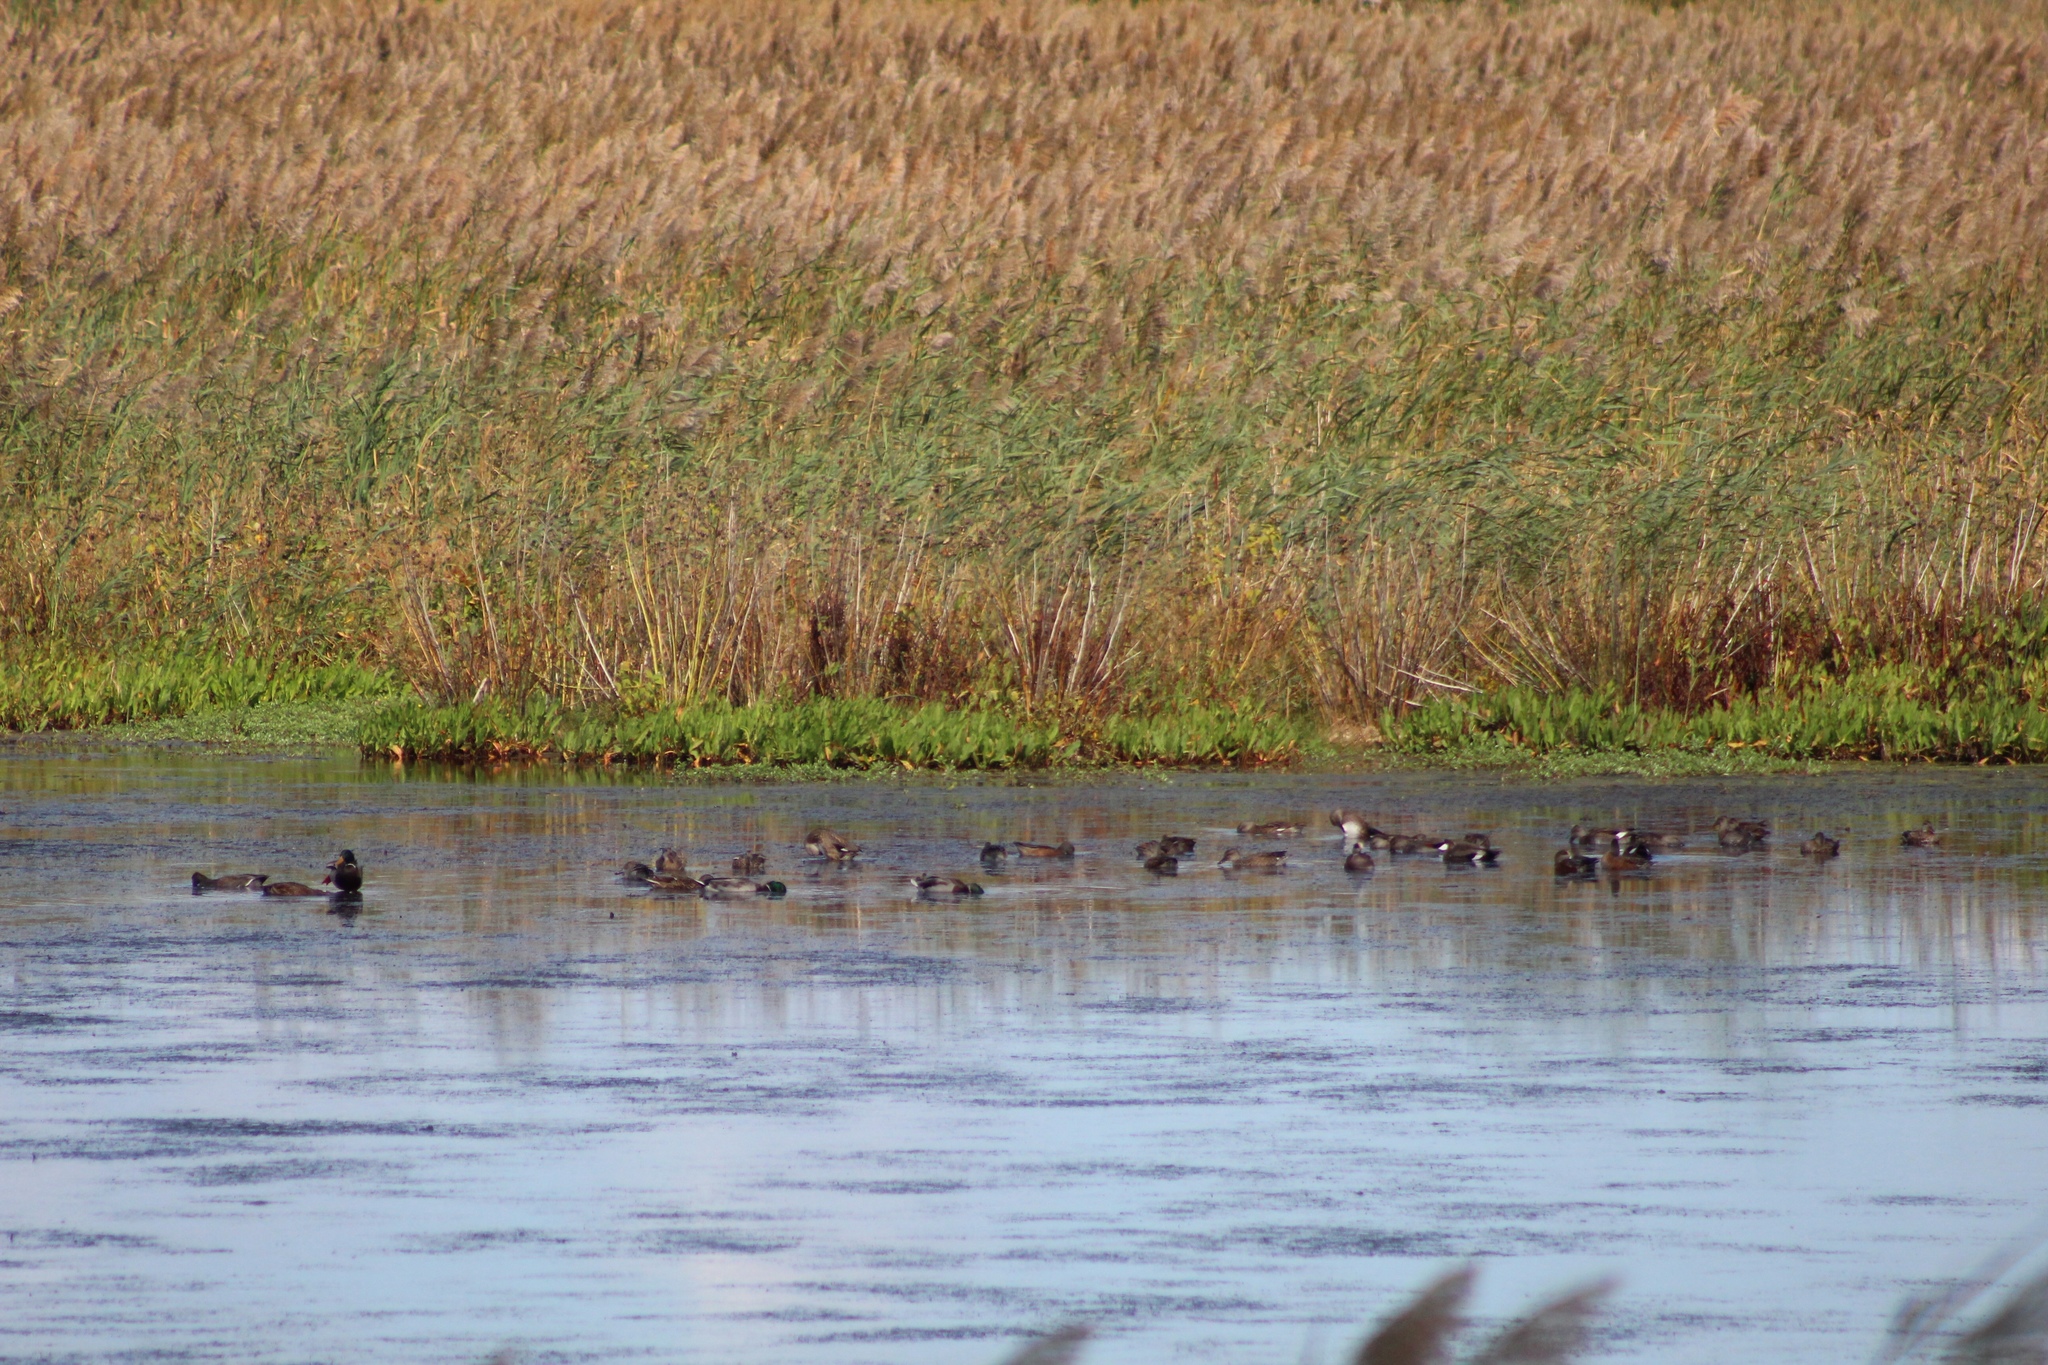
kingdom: Animalia
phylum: Chordata
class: Aves
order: Anseriformes
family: Anatidae
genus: Mareca
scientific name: Mareca americana
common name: American wigeon
